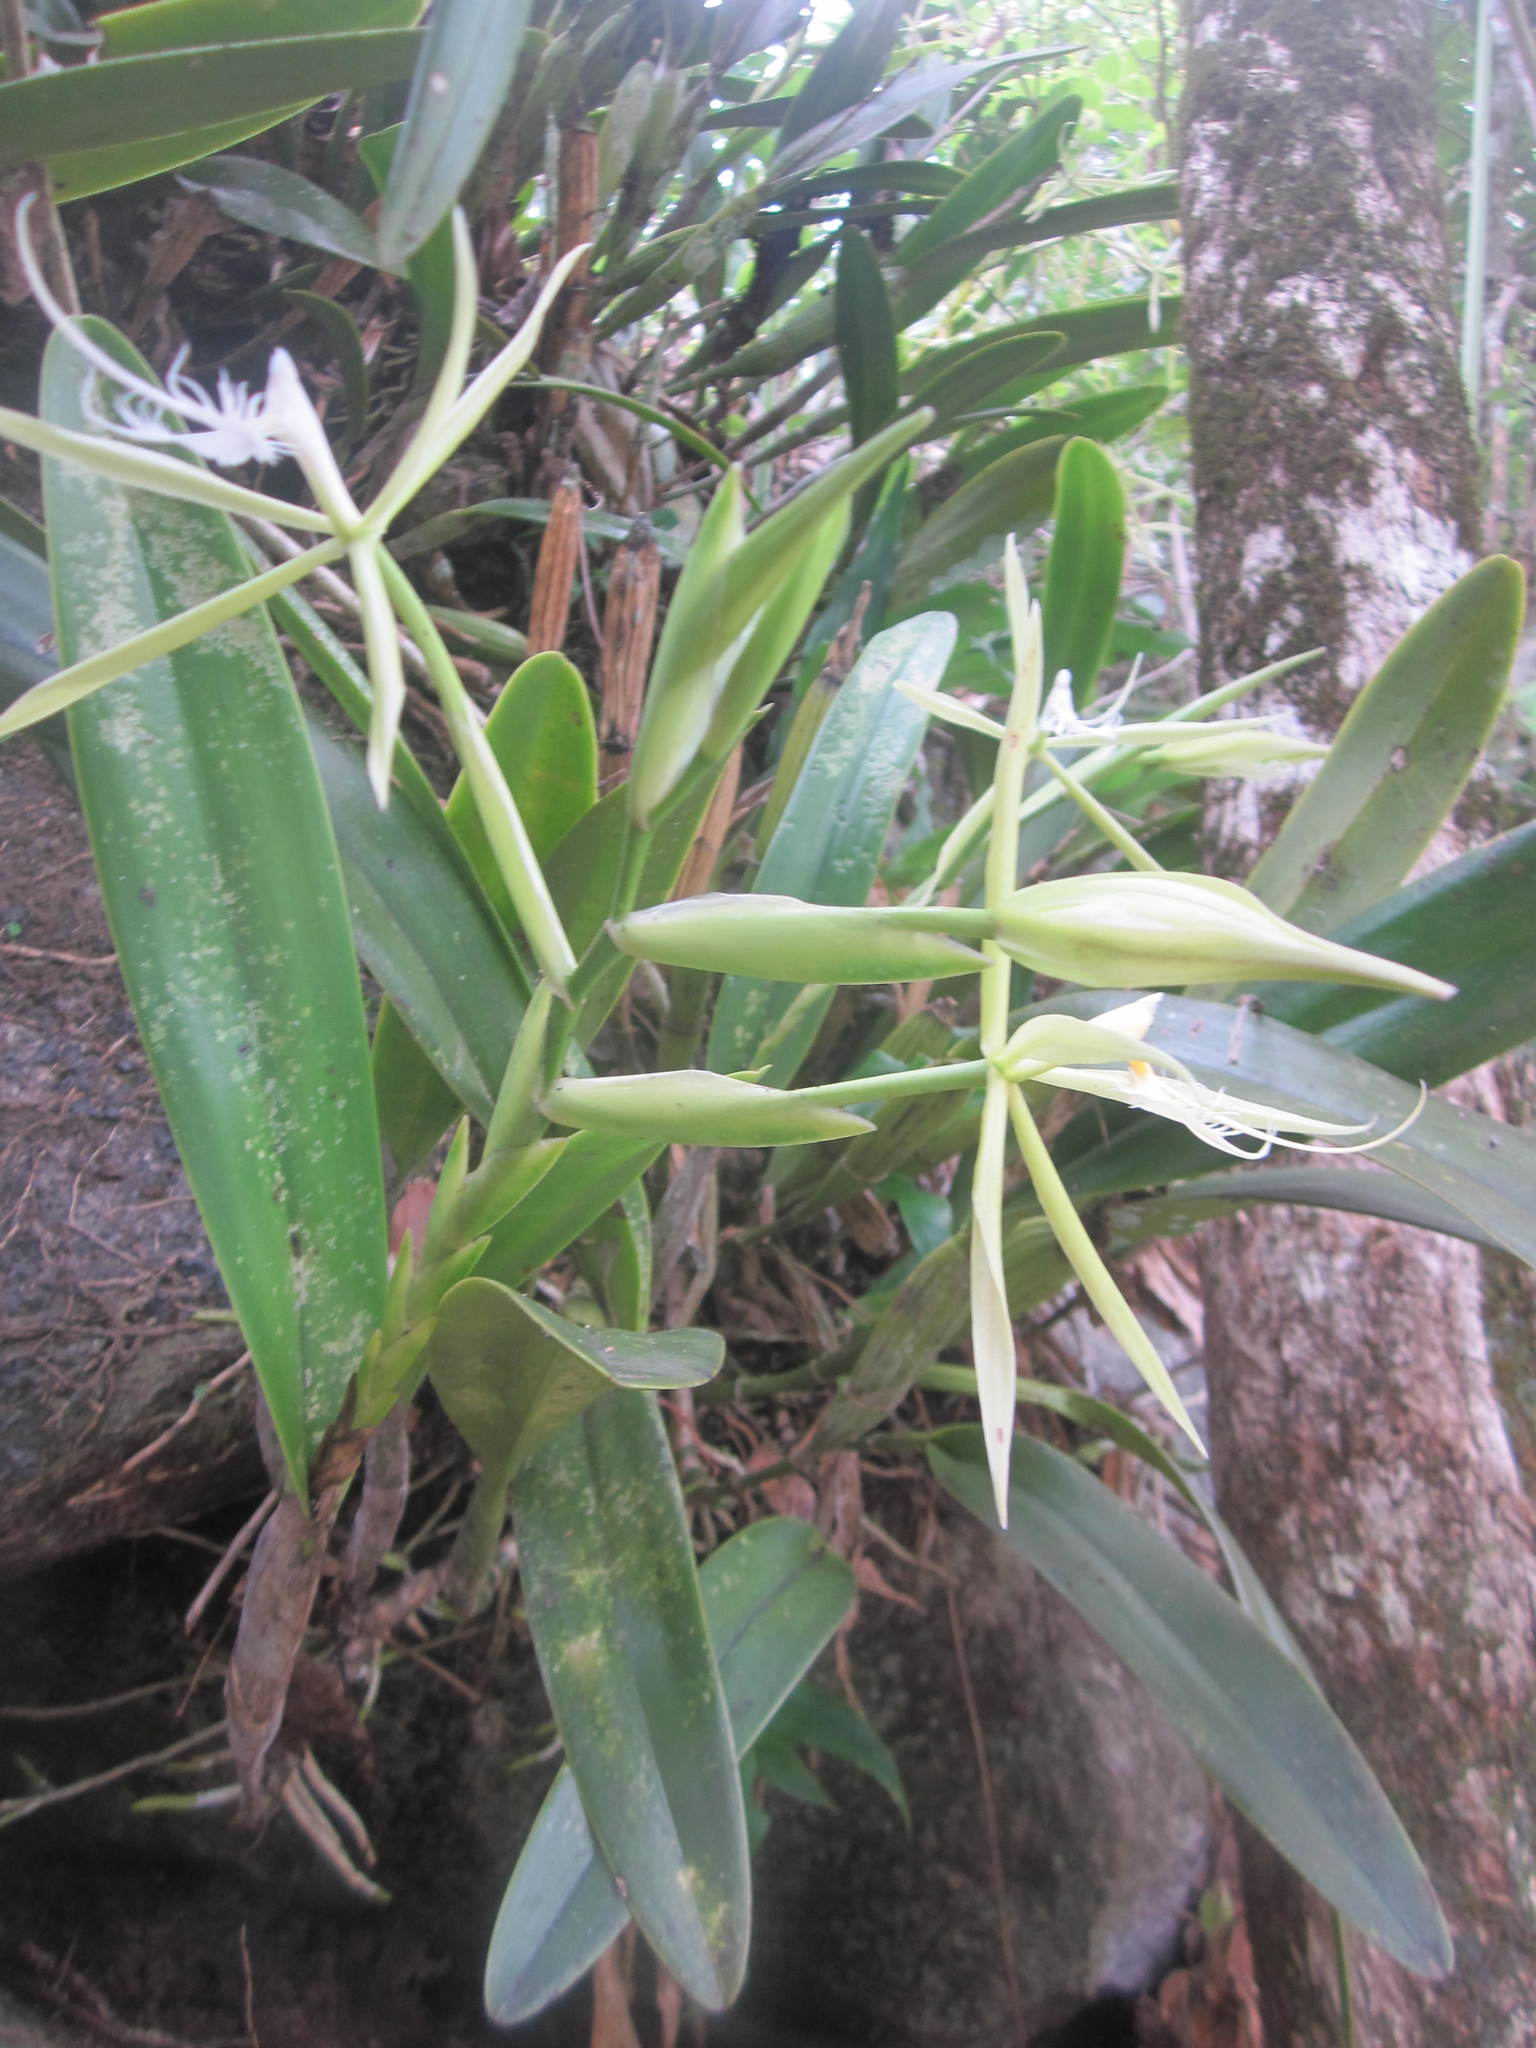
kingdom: Plantae
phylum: Tracheophyta
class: Liliopsida
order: Asparagales
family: Orchidaceae
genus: Epidendrum
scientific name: Epidendrum ciliare
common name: Eyelash orchid
